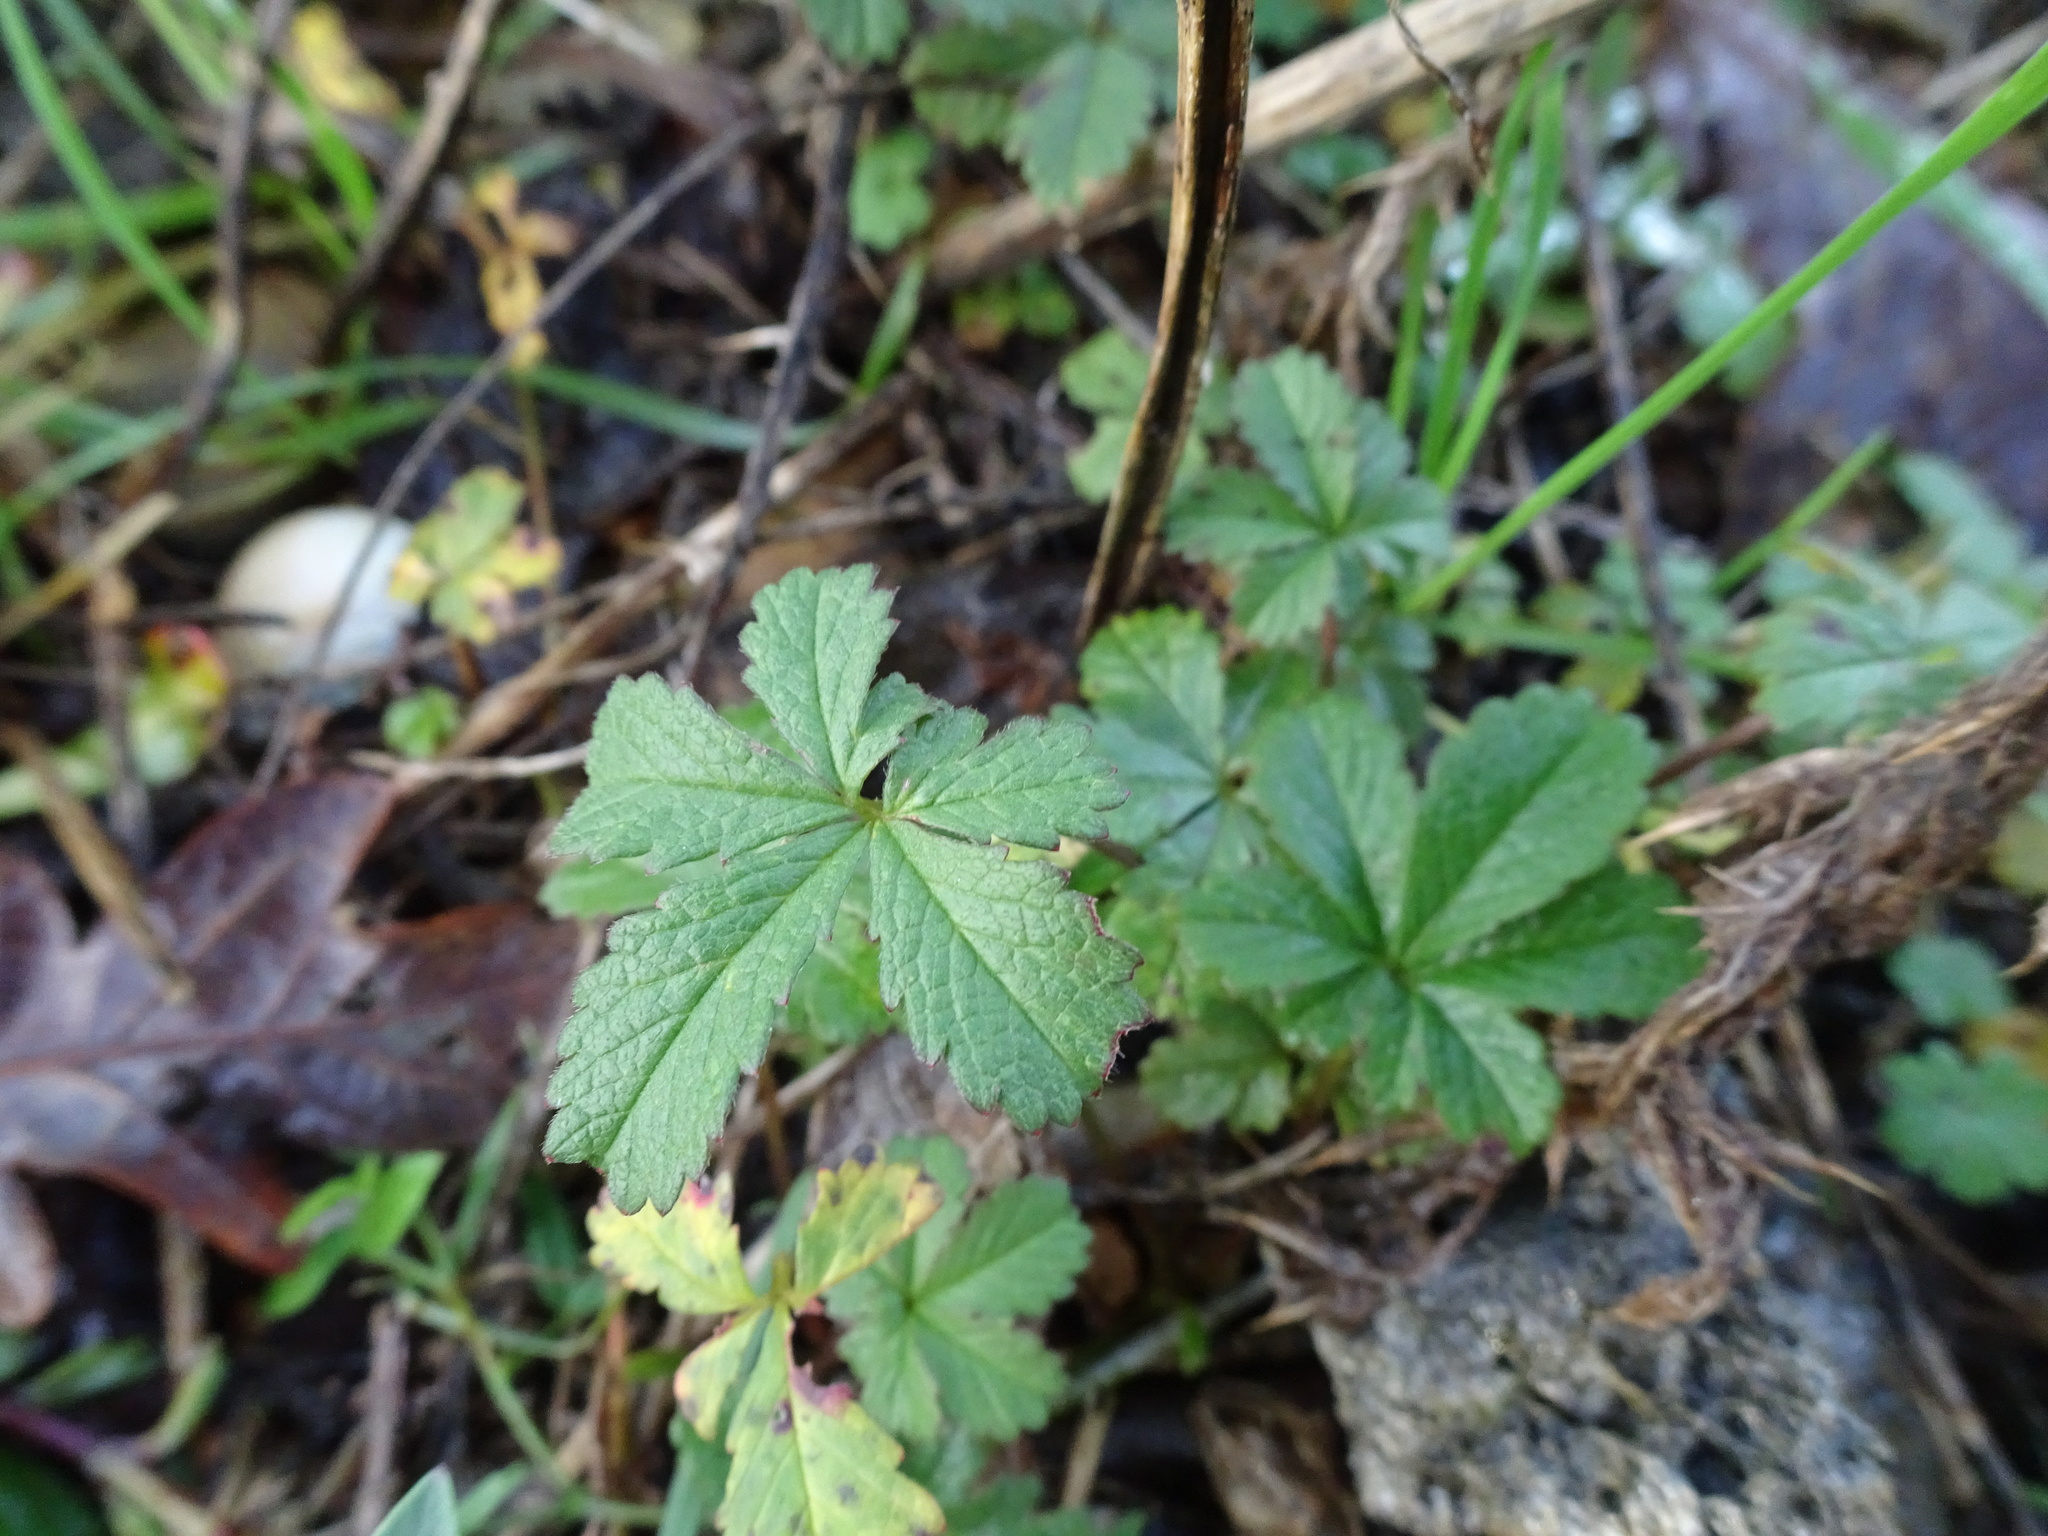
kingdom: Plantae
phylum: Tracheophyta
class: Magnoliopsida
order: Rosales
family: Rosaceae
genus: Potentilla
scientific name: Potentilla reptans
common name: Creeping cinquefoil
